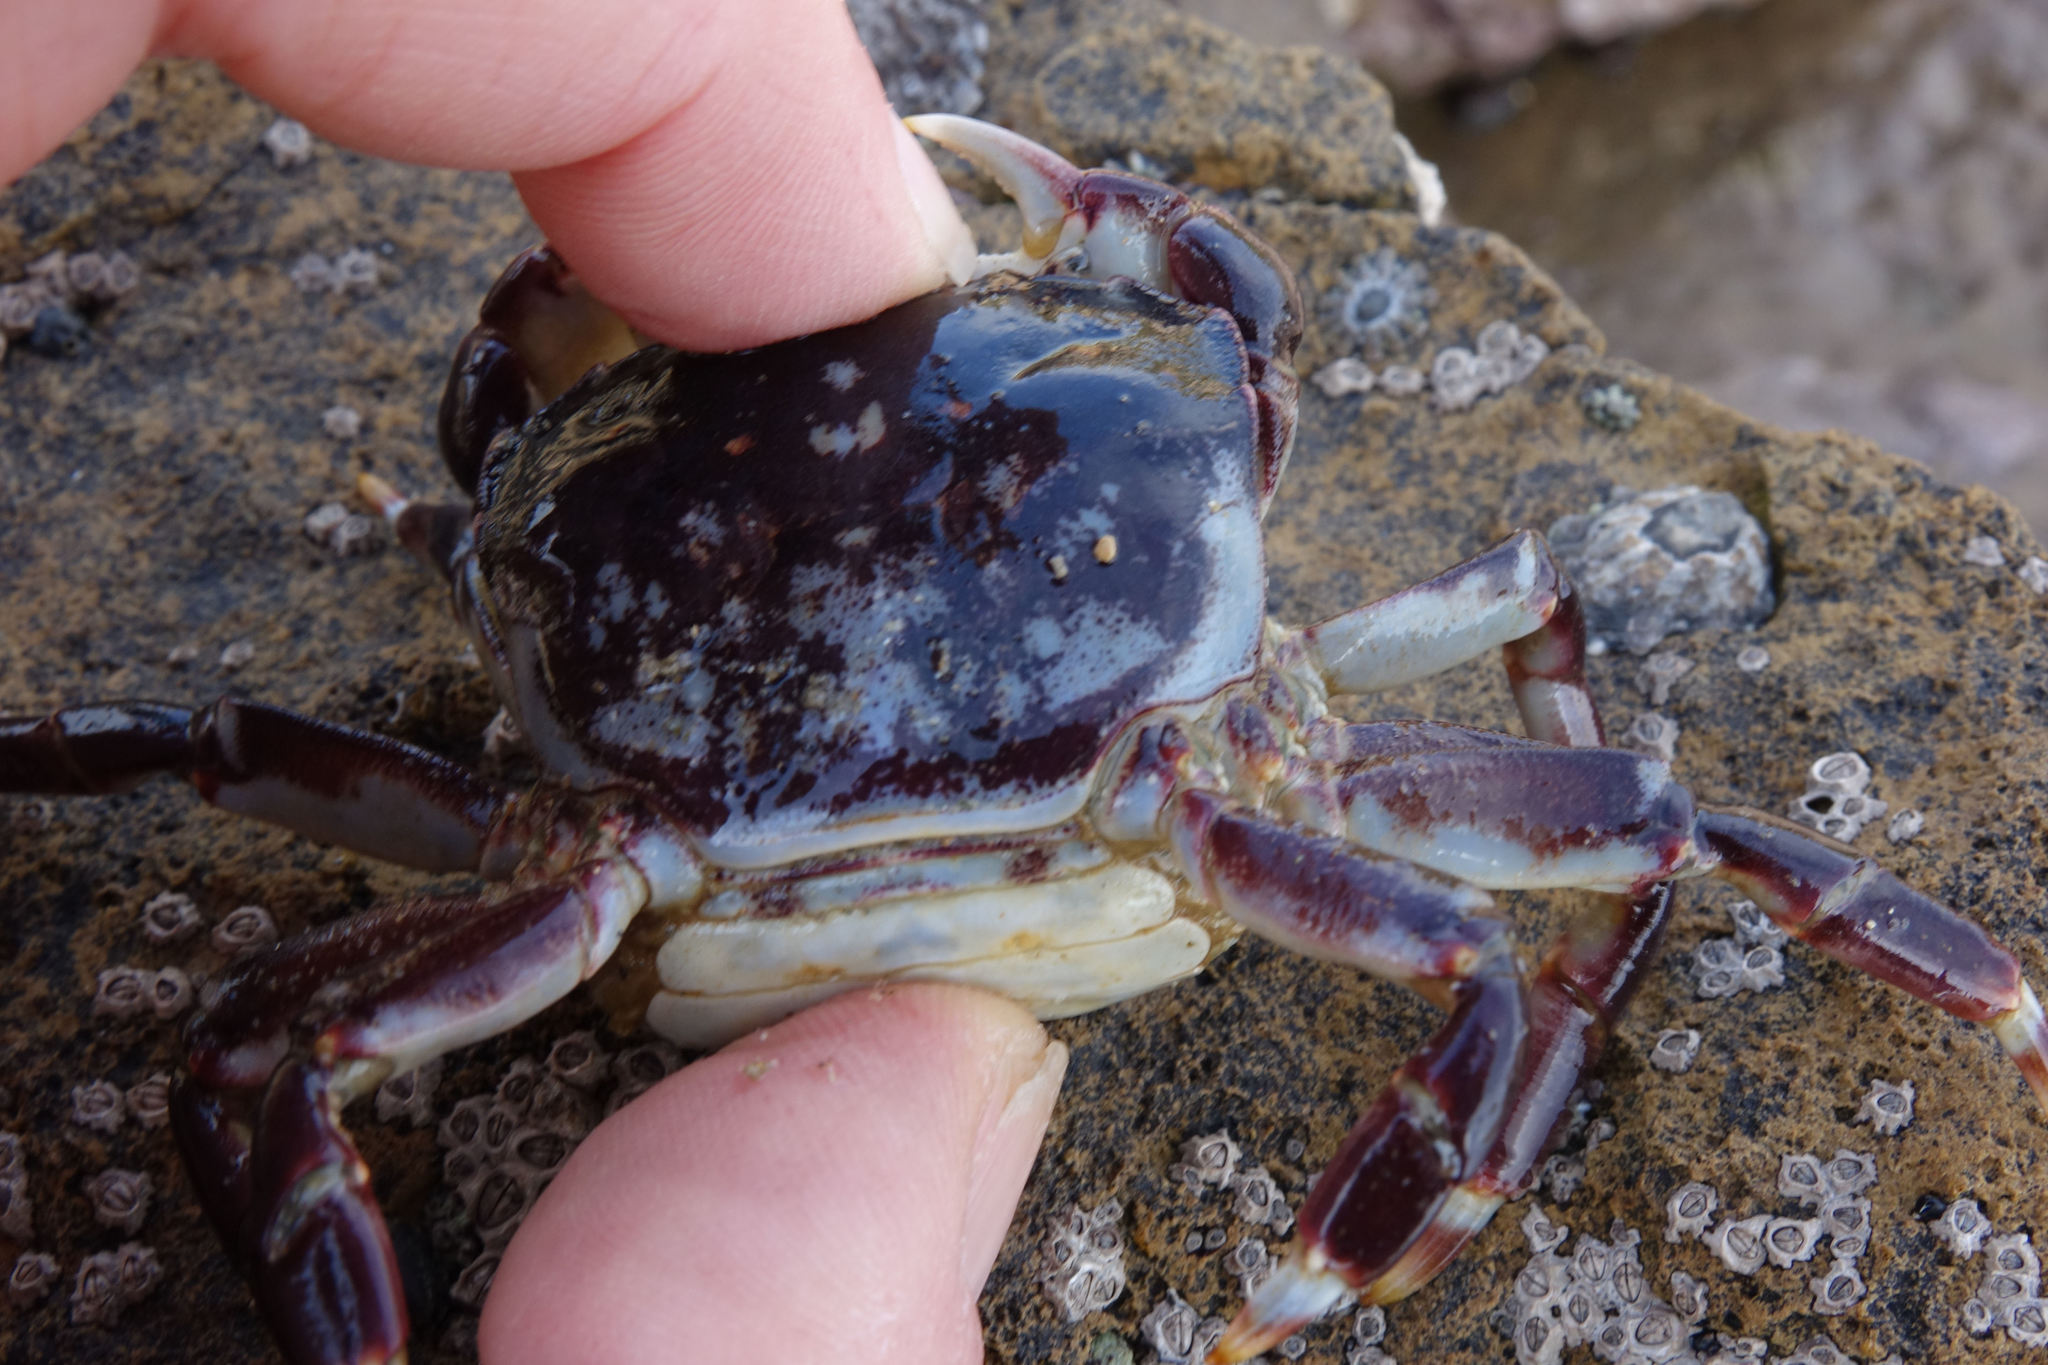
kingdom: Animalia
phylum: Arthropoda
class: Malacostraca
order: Decapoda
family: Varunidae
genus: Hemigrapsus
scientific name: Hemigrapsus sexdentatus
